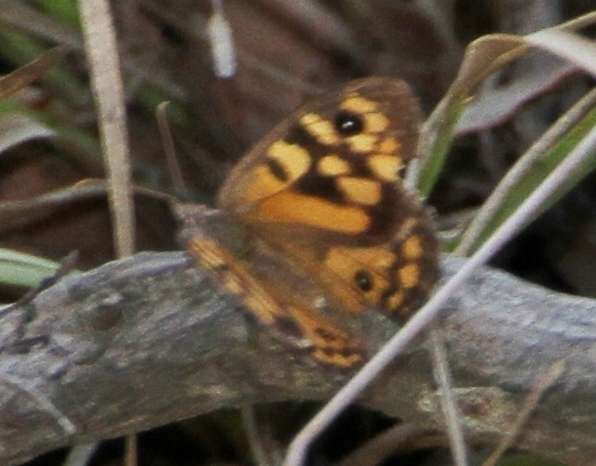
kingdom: Animalia
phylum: Arthropoda
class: Insecta
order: Lepidoptera
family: Nymphalidae
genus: Geitoneura
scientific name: Geitoneura klugii
